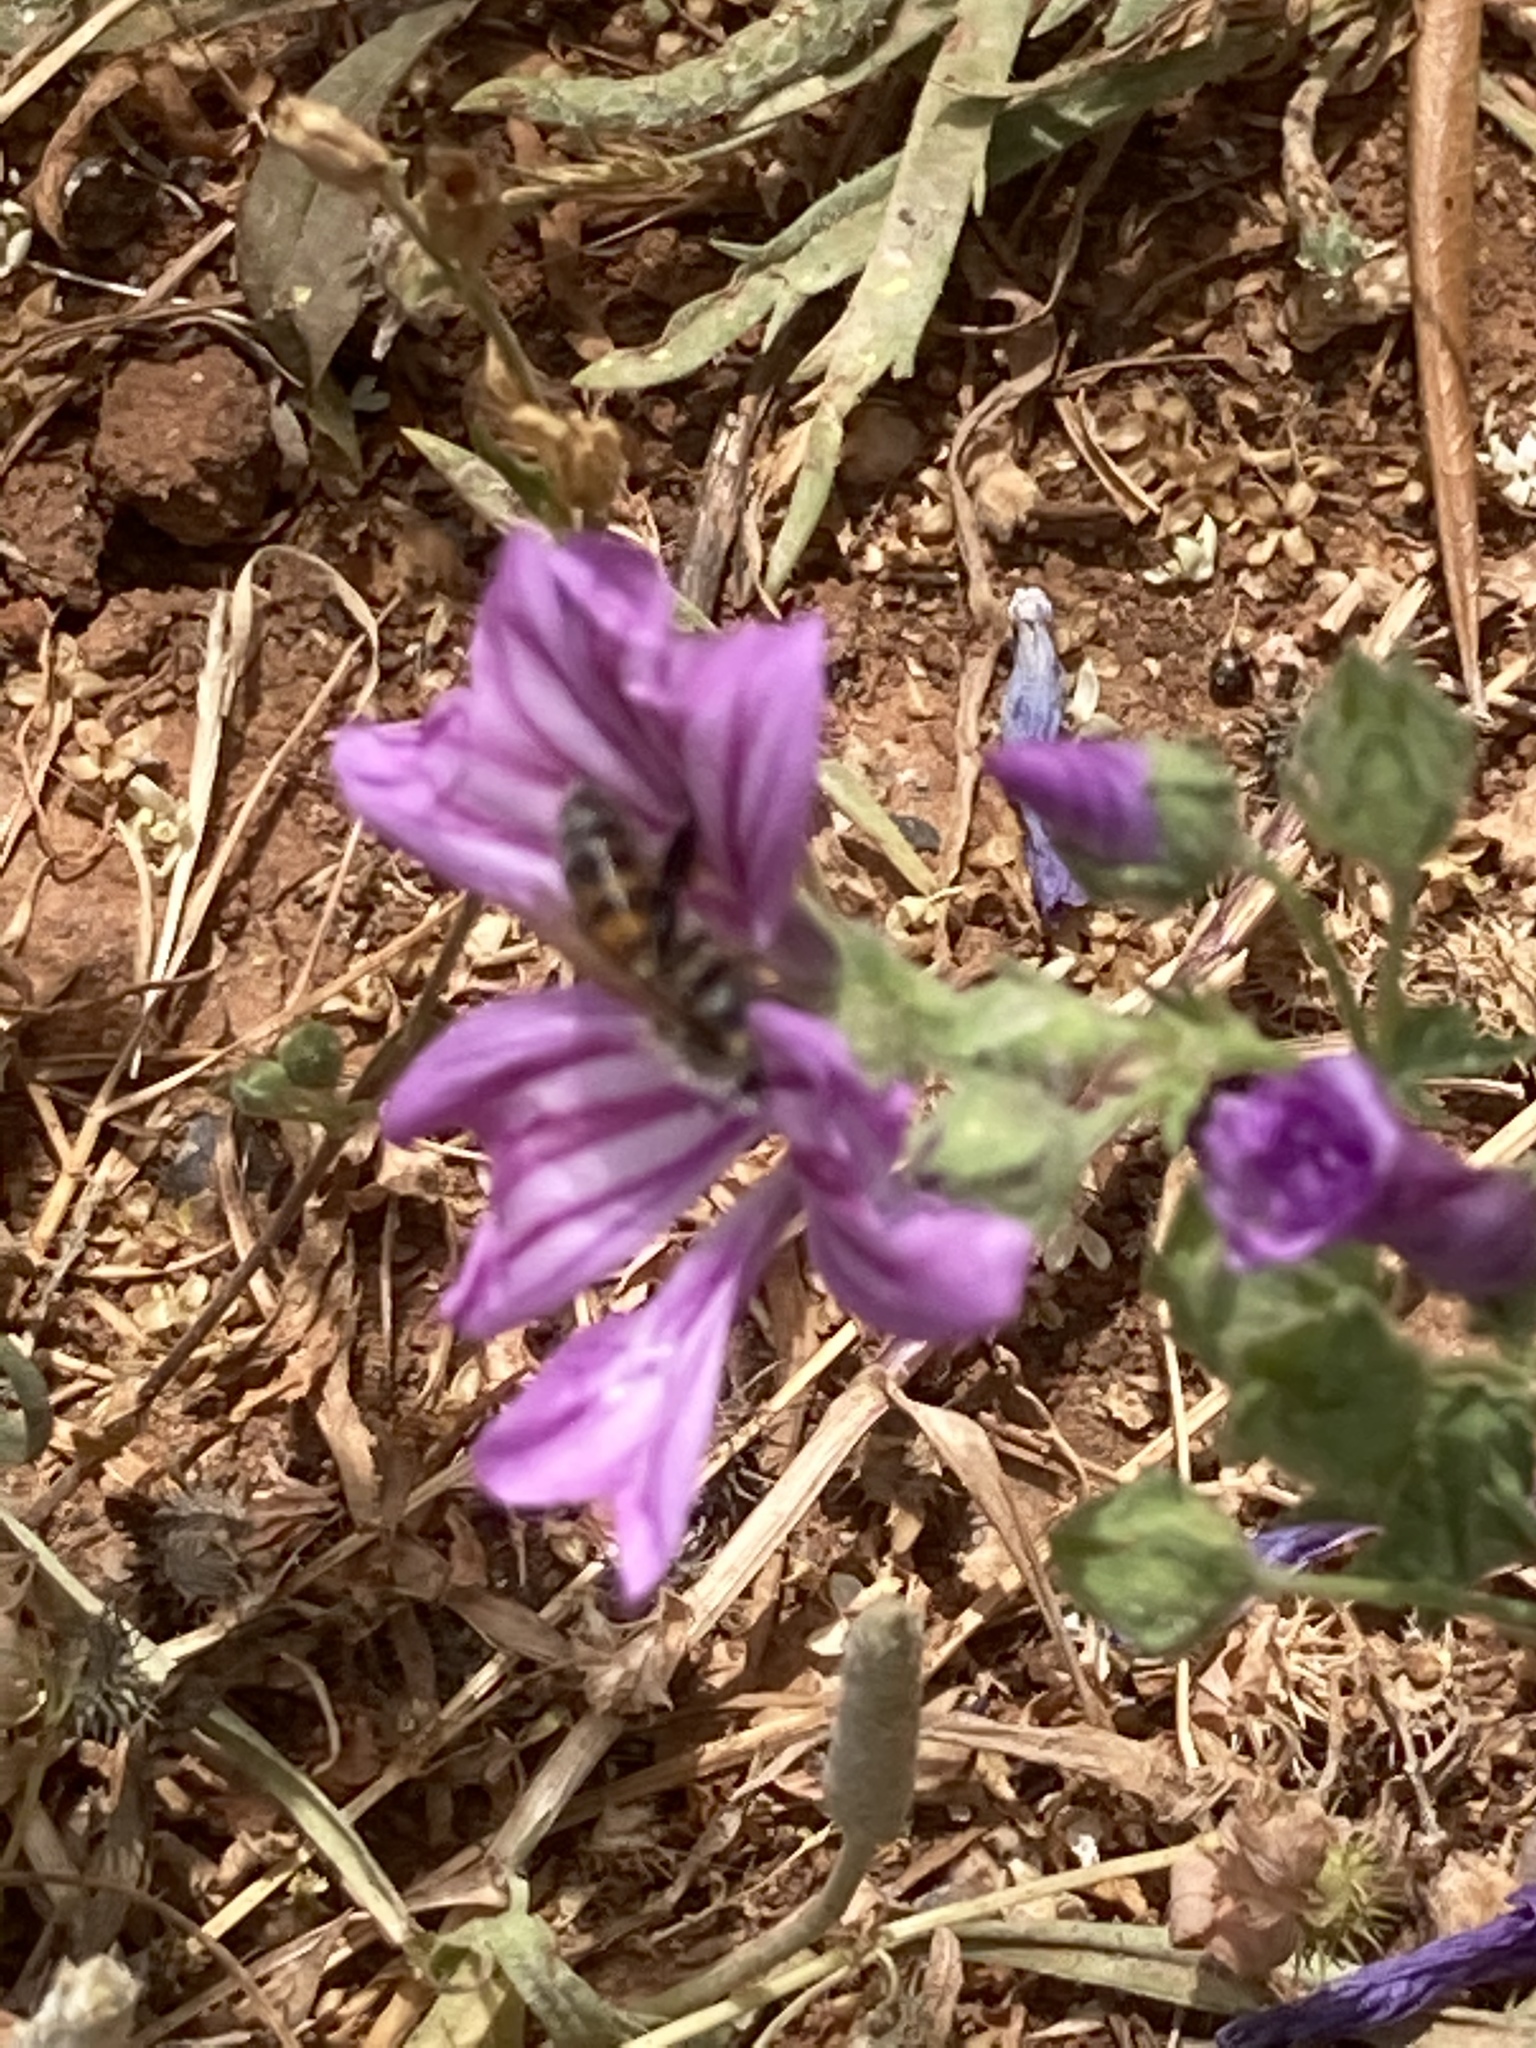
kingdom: Animalia
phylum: Arthropoda
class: Insecta
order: Hymenoptera
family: Apidae
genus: Apis
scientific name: Apis mellifera
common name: Honey bee
